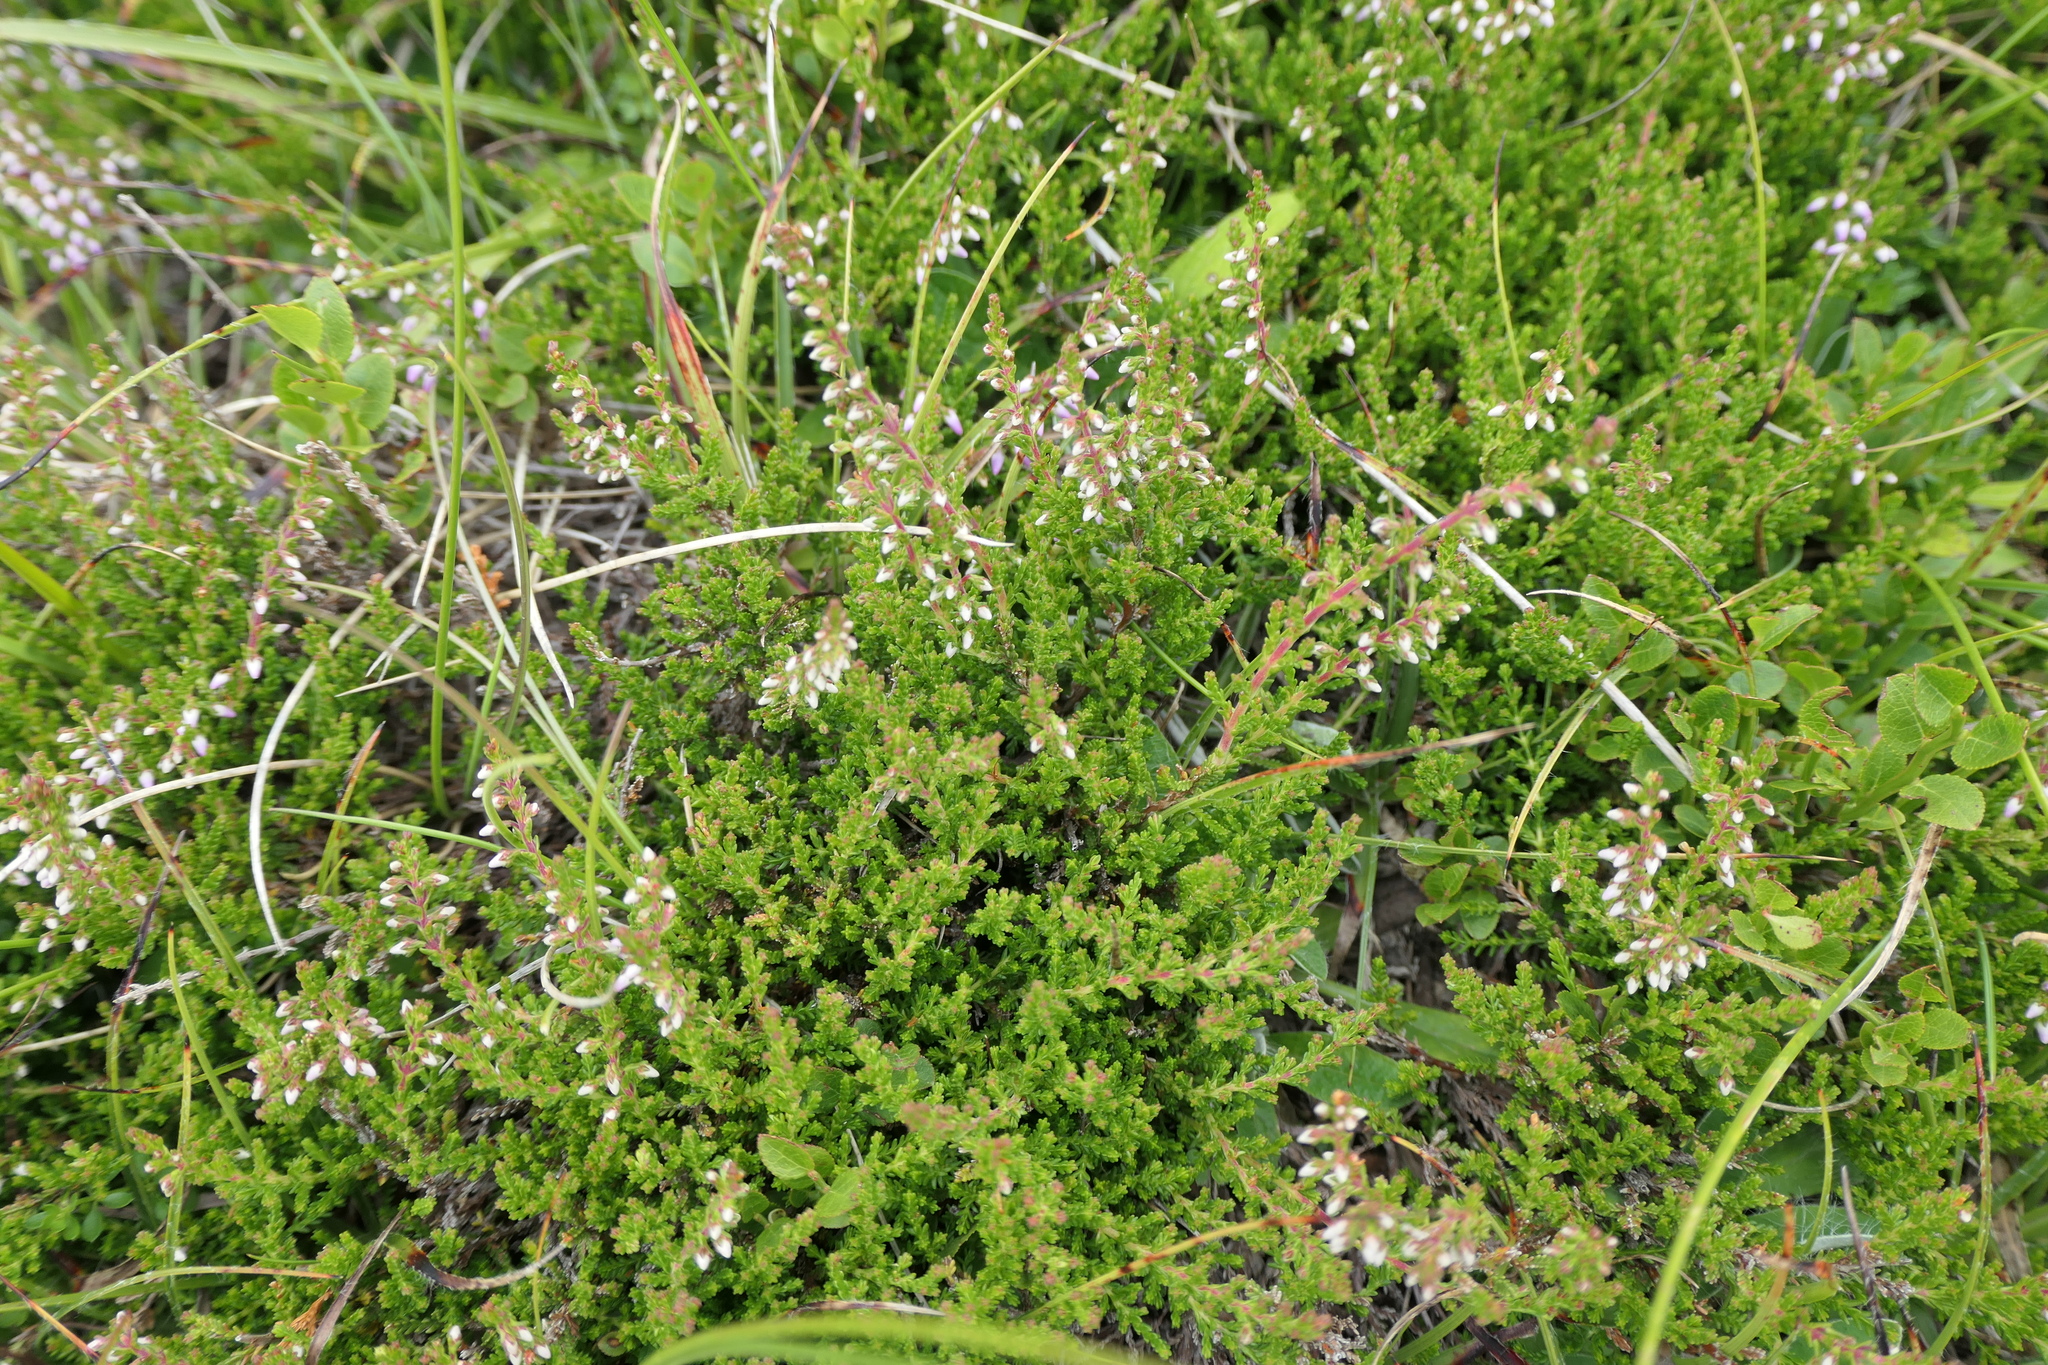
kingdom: Plantae
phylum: Tracheophyta
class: Magnoliopsida
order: Ericales
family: Ericaceae
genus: Calluna
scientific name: Calluna vulgaris
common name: Heather
